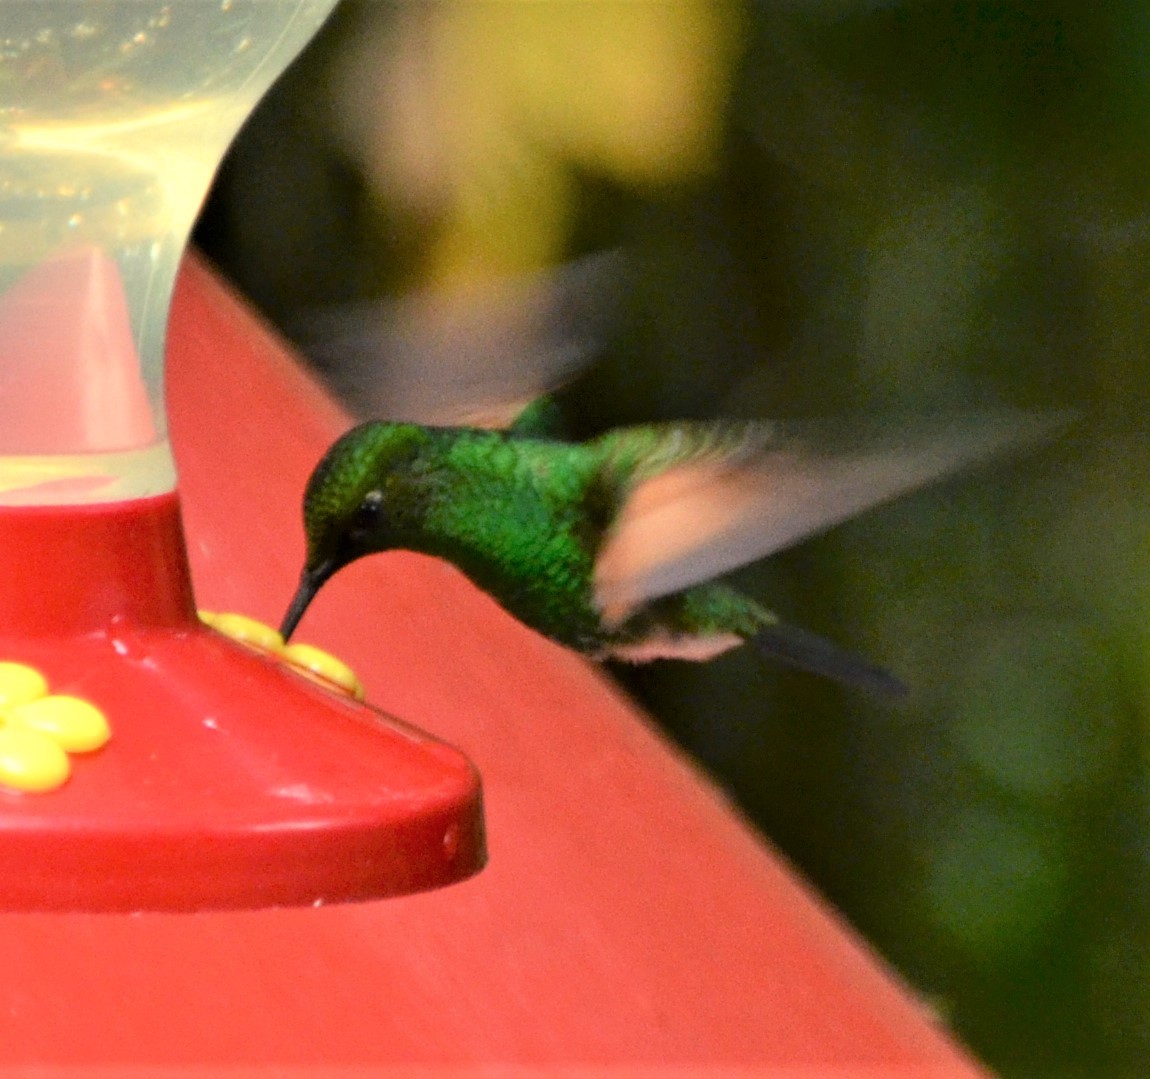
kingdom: Animalia
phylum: Chordata
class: Aves
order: Apodiformes
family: Trochilidae
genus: Eupherusa
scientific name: Eupherusa eximia
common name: Stripe-tailed hummingbird
